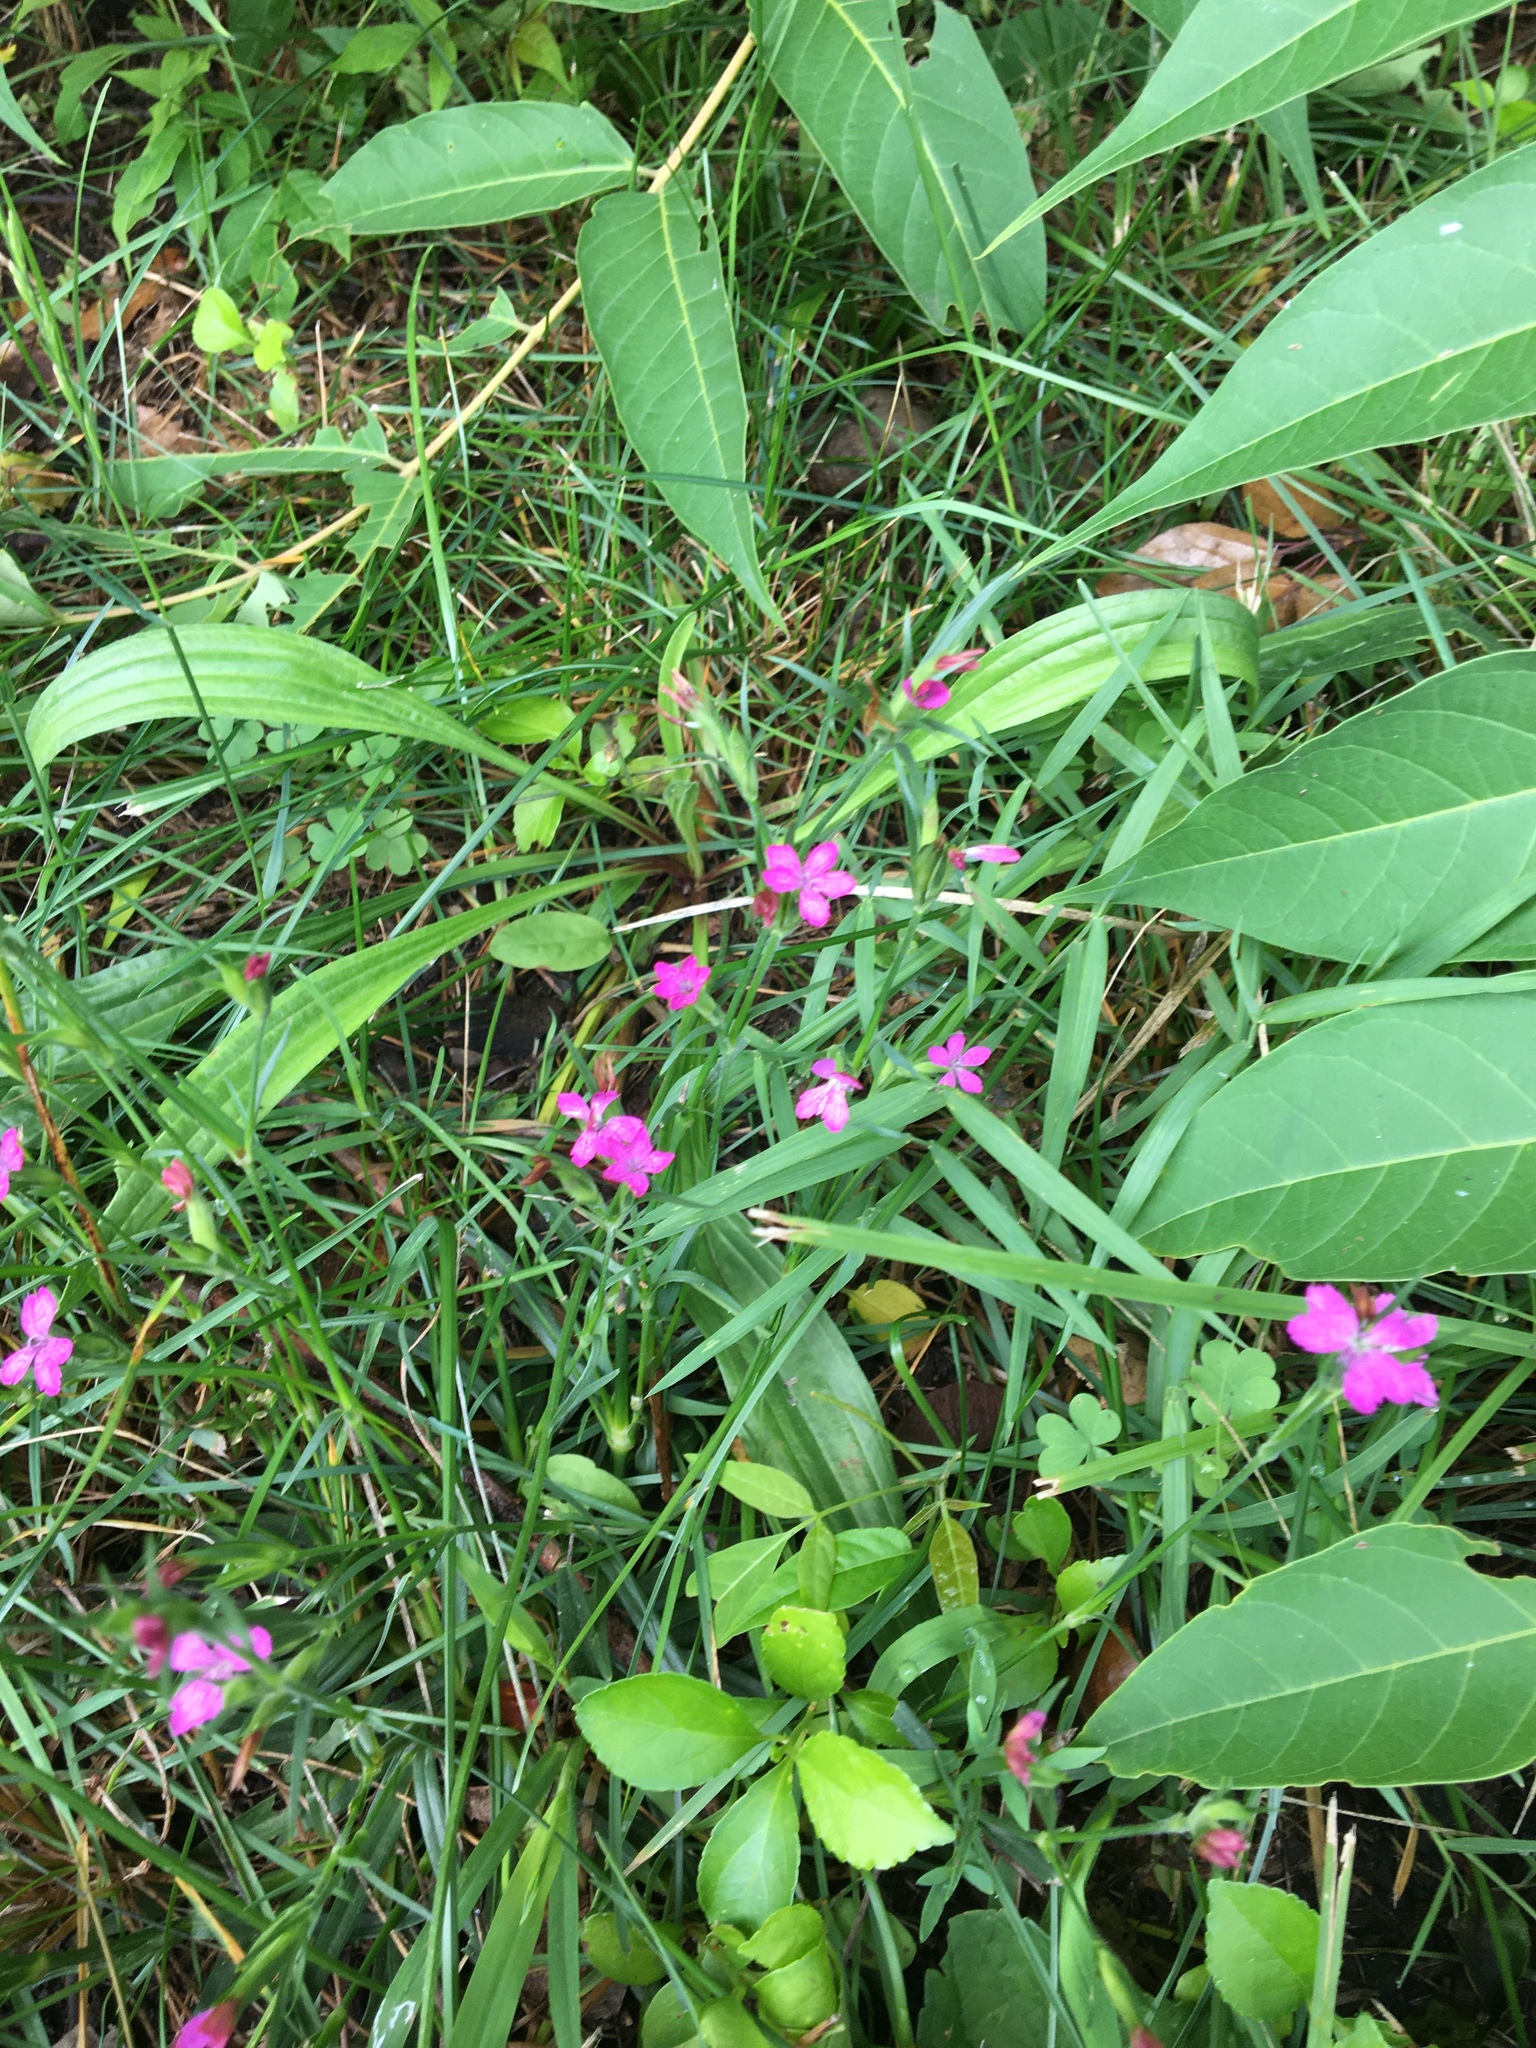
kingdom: Plantae
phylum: Tracheophyta
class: Magnoliopsida
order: Caryophyllales
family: Caryophyllaceae
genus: Dianthus
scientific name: Dianthus armeria
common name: Deptford pink
